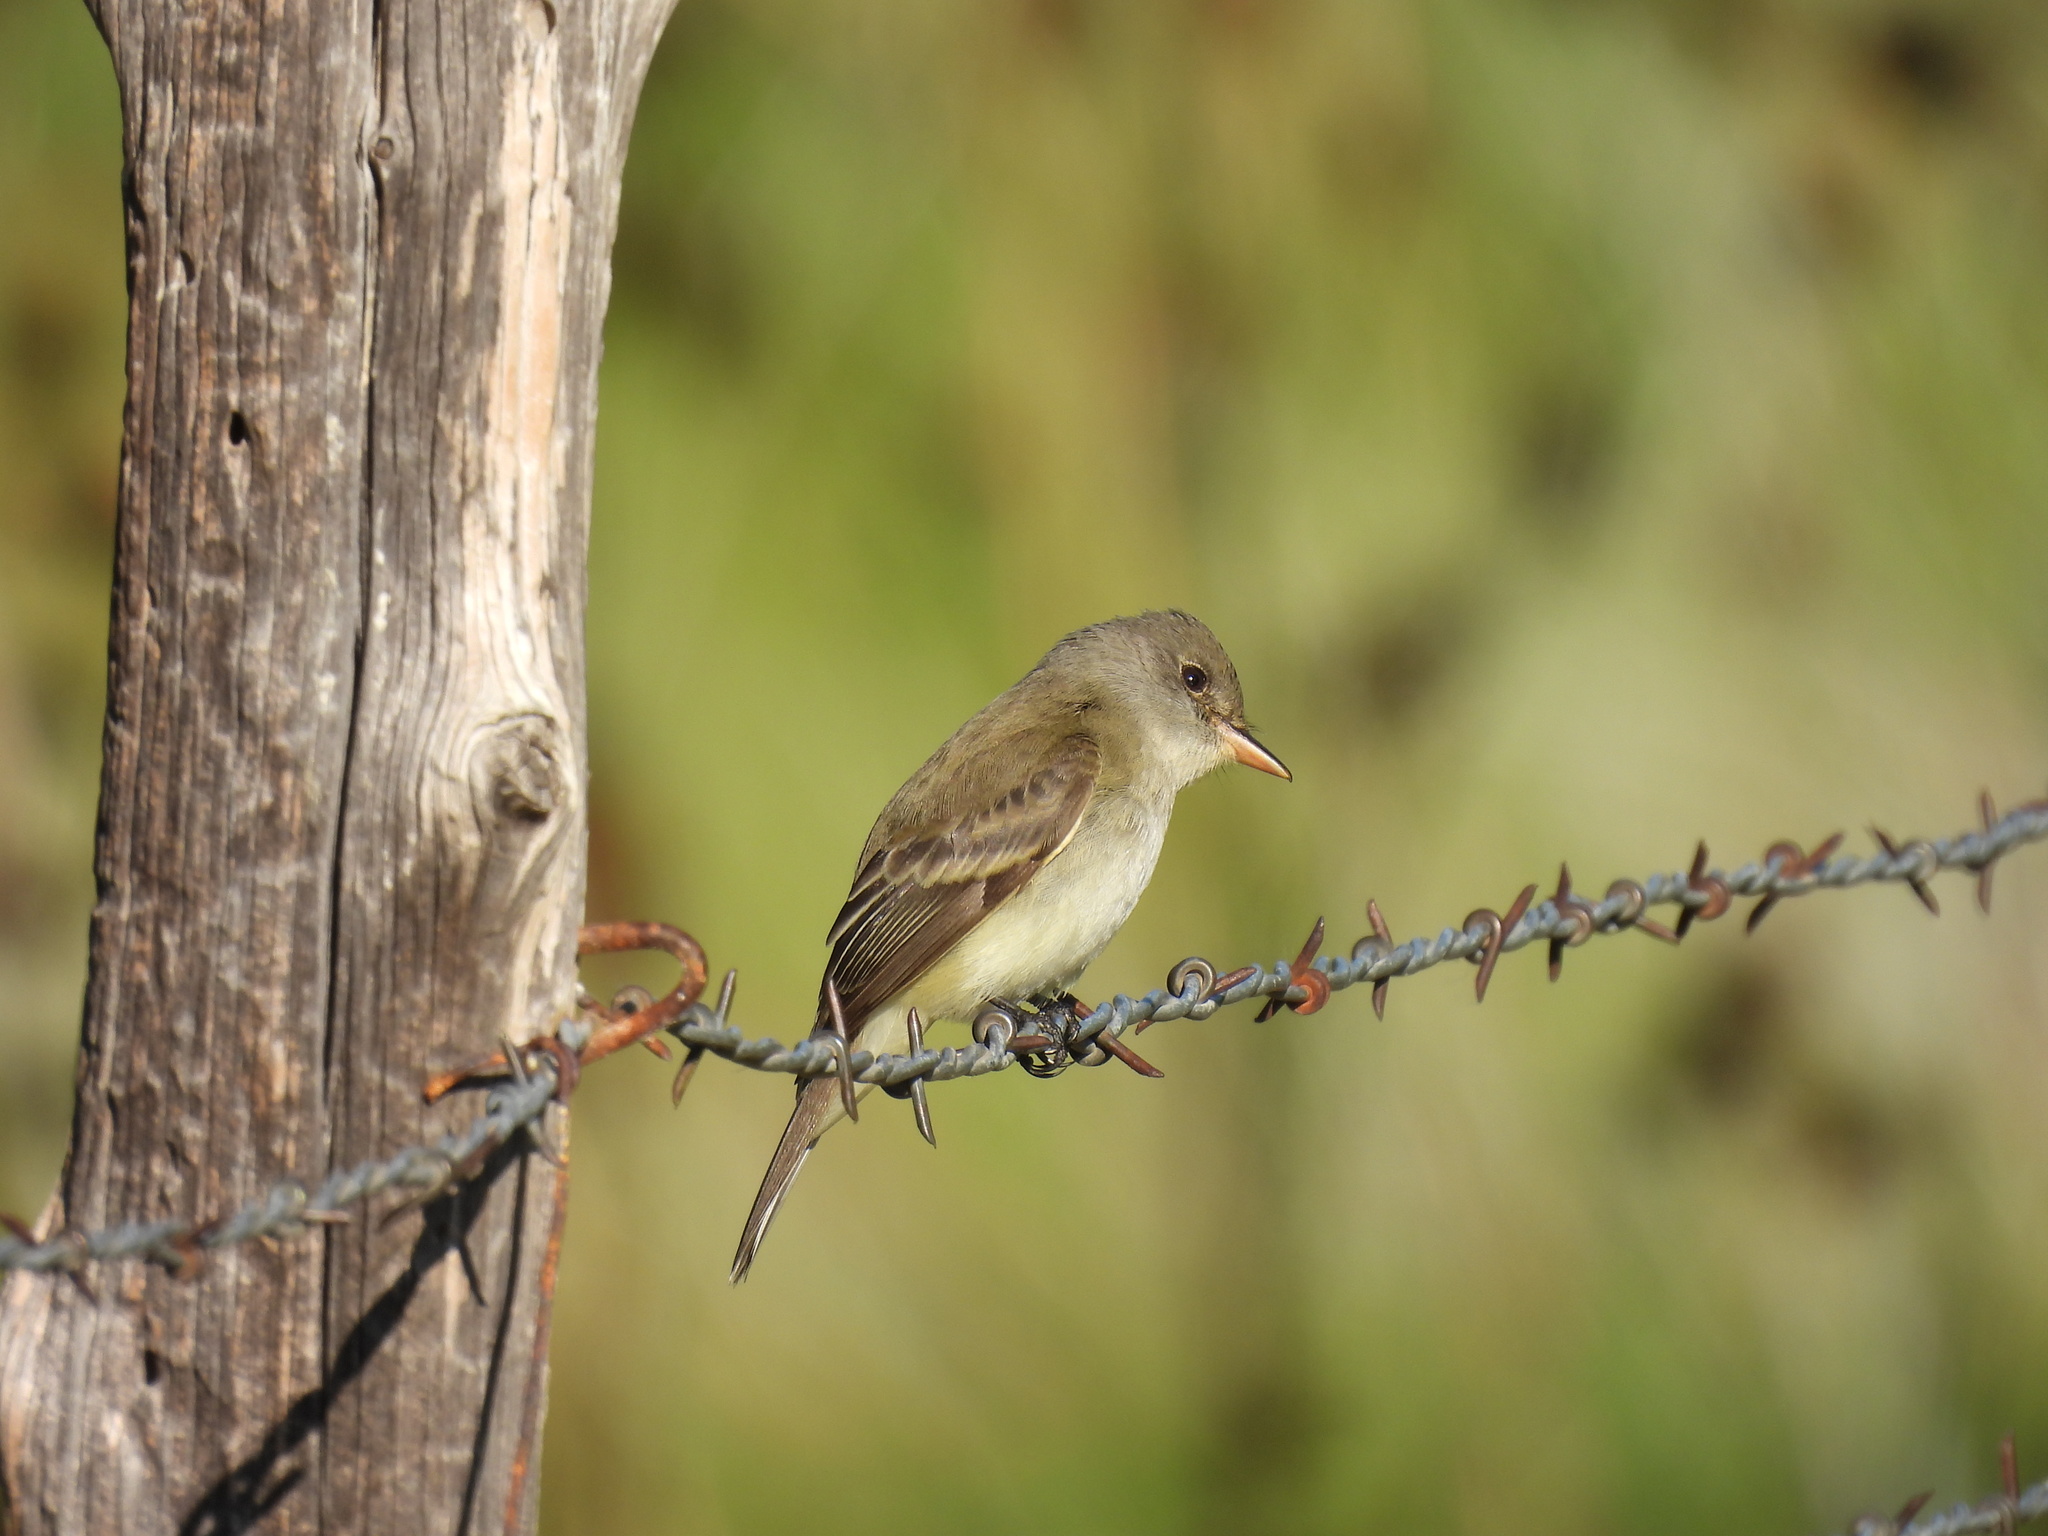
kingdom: Animalia
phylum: Chordata
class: Aves
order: Passeriformes
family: Tyrannidae
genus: Empidonax
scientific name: Empidonax traillii
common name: Willow flycatcher
